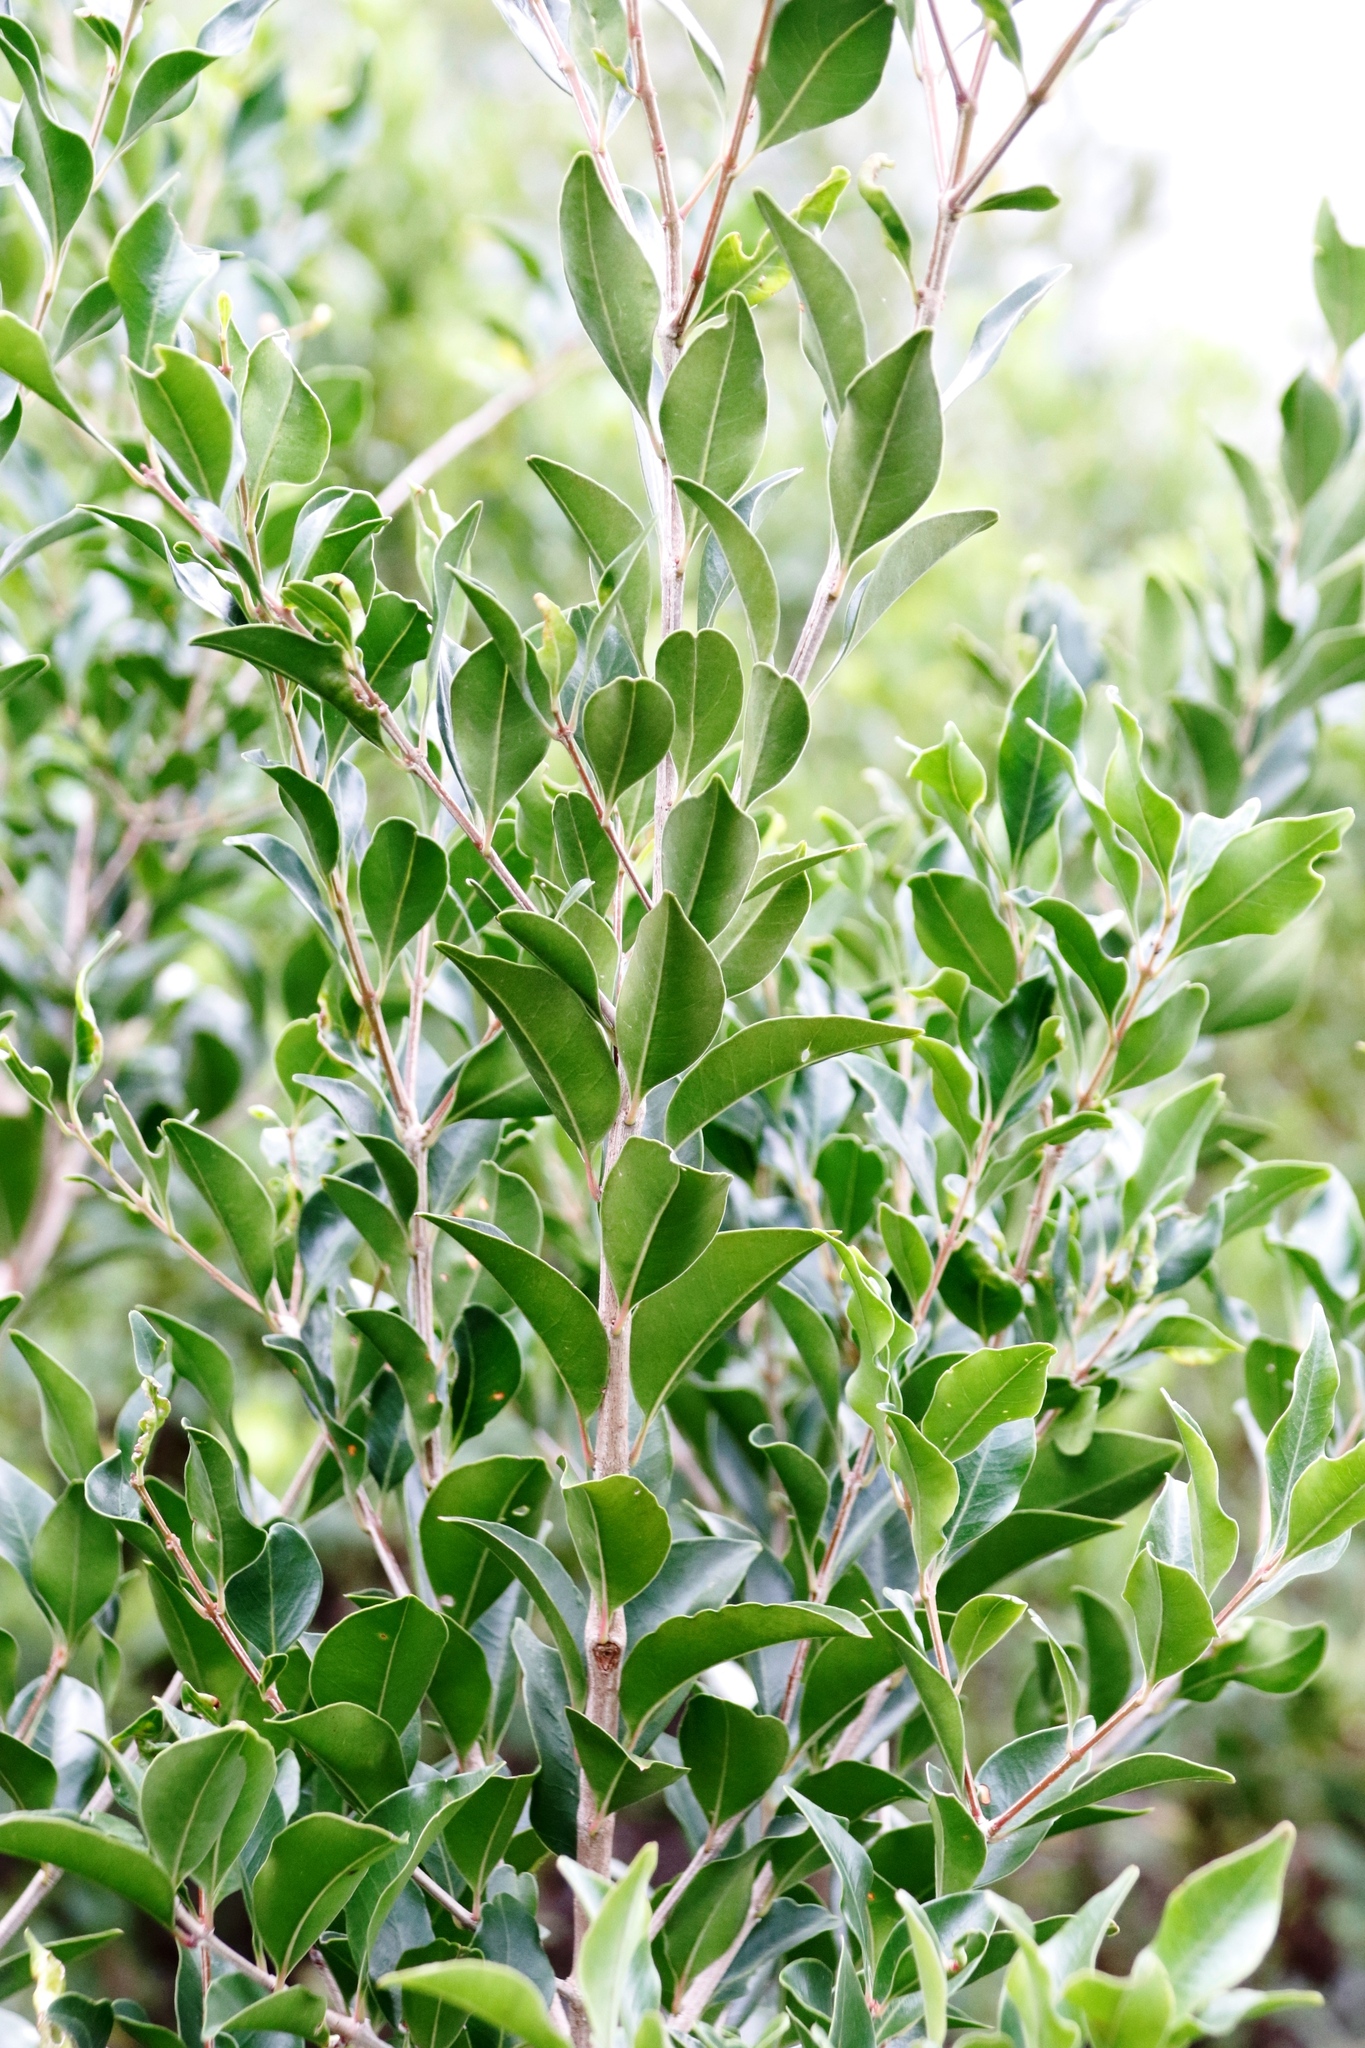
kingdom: Plantae
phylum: Tracheophyta
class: Magnoliopsida
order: Myrtales
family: Penaeaceae
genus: Olinia
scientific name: Olinia ventosa
